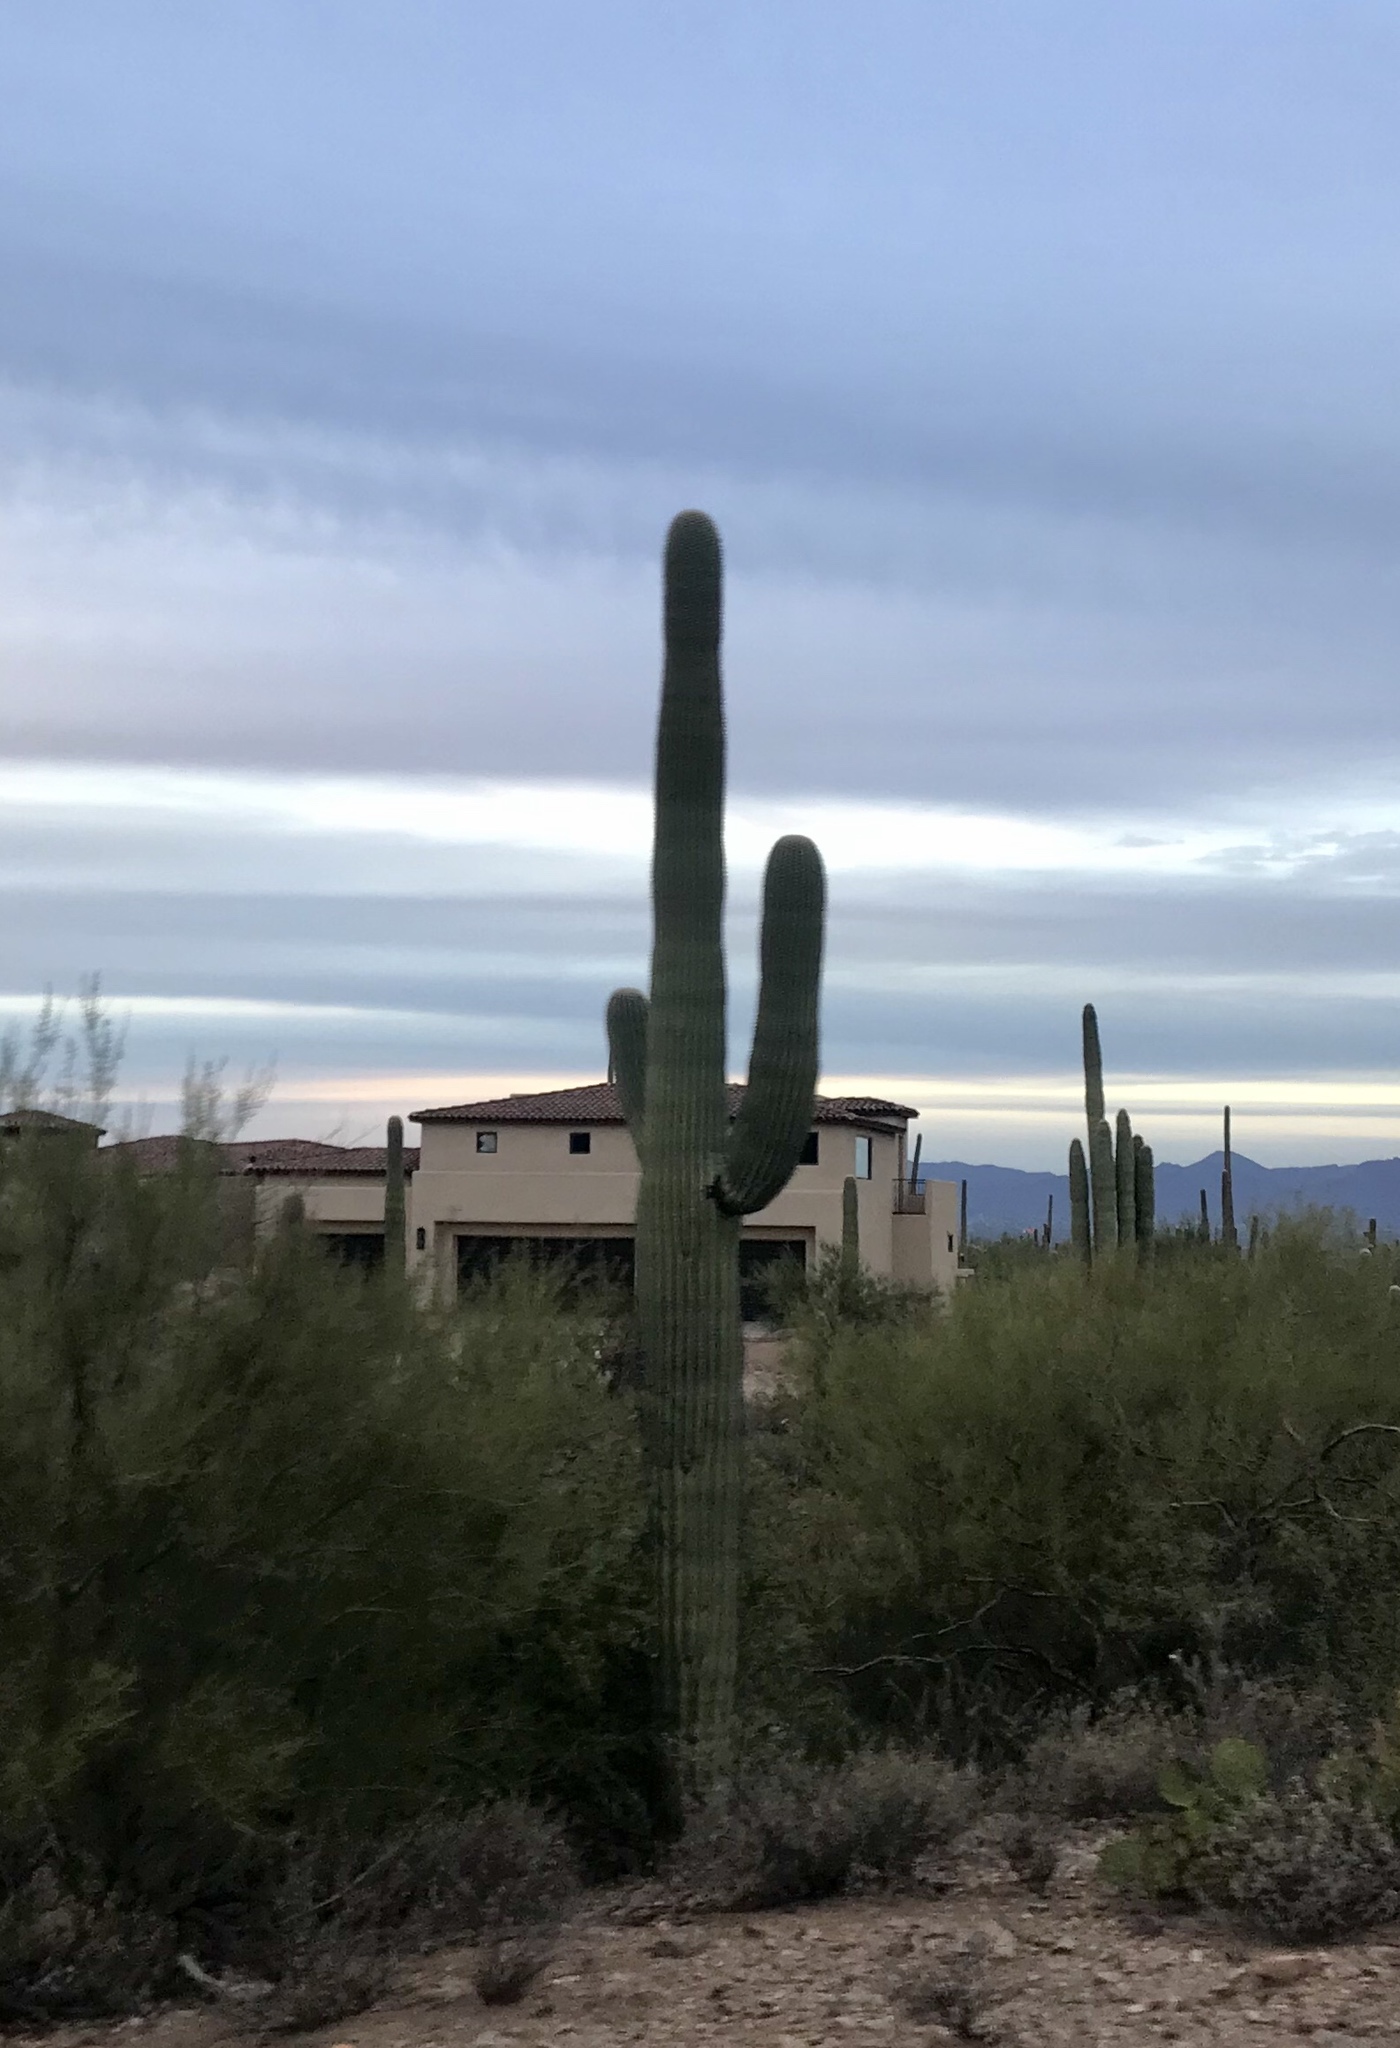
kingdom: Plantae
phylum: Tracheophyta
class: Magnoliopsida
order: Caryophyllales
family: Cactaceae
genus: Carnegiea
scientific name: Carnegiea gigantea
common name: Saguaro
